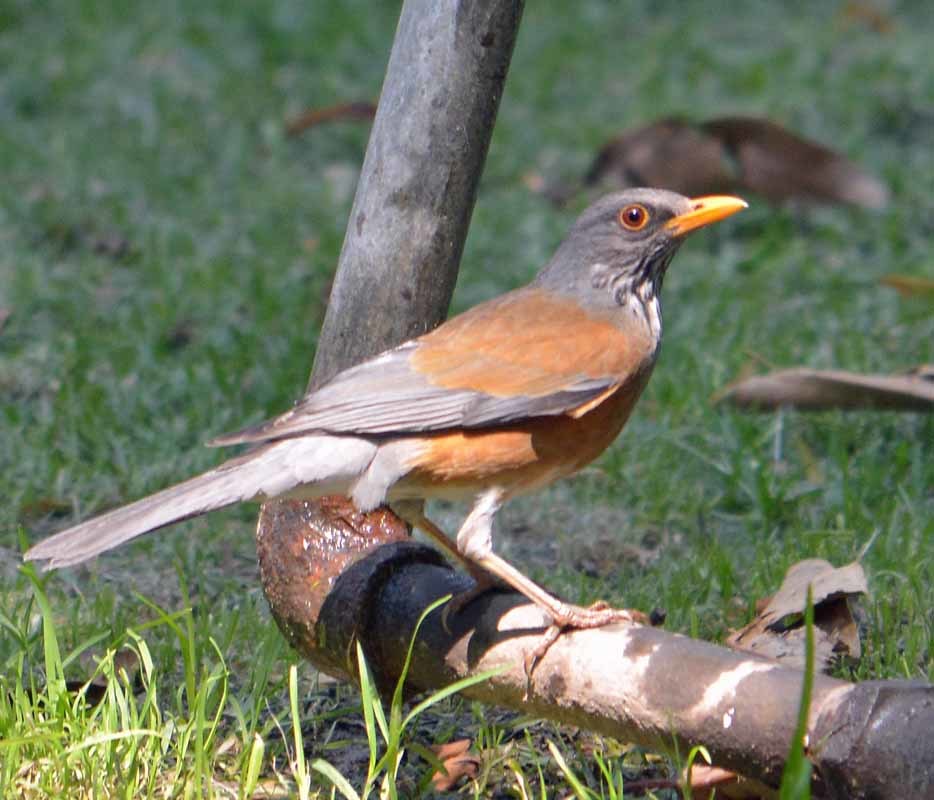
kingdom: Animalia
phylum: Chordata
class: Aves
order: Passeriformes
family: Turdidae
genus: Turdus
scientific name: Turdus rufopalliatus
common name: Rufous-backed robin
